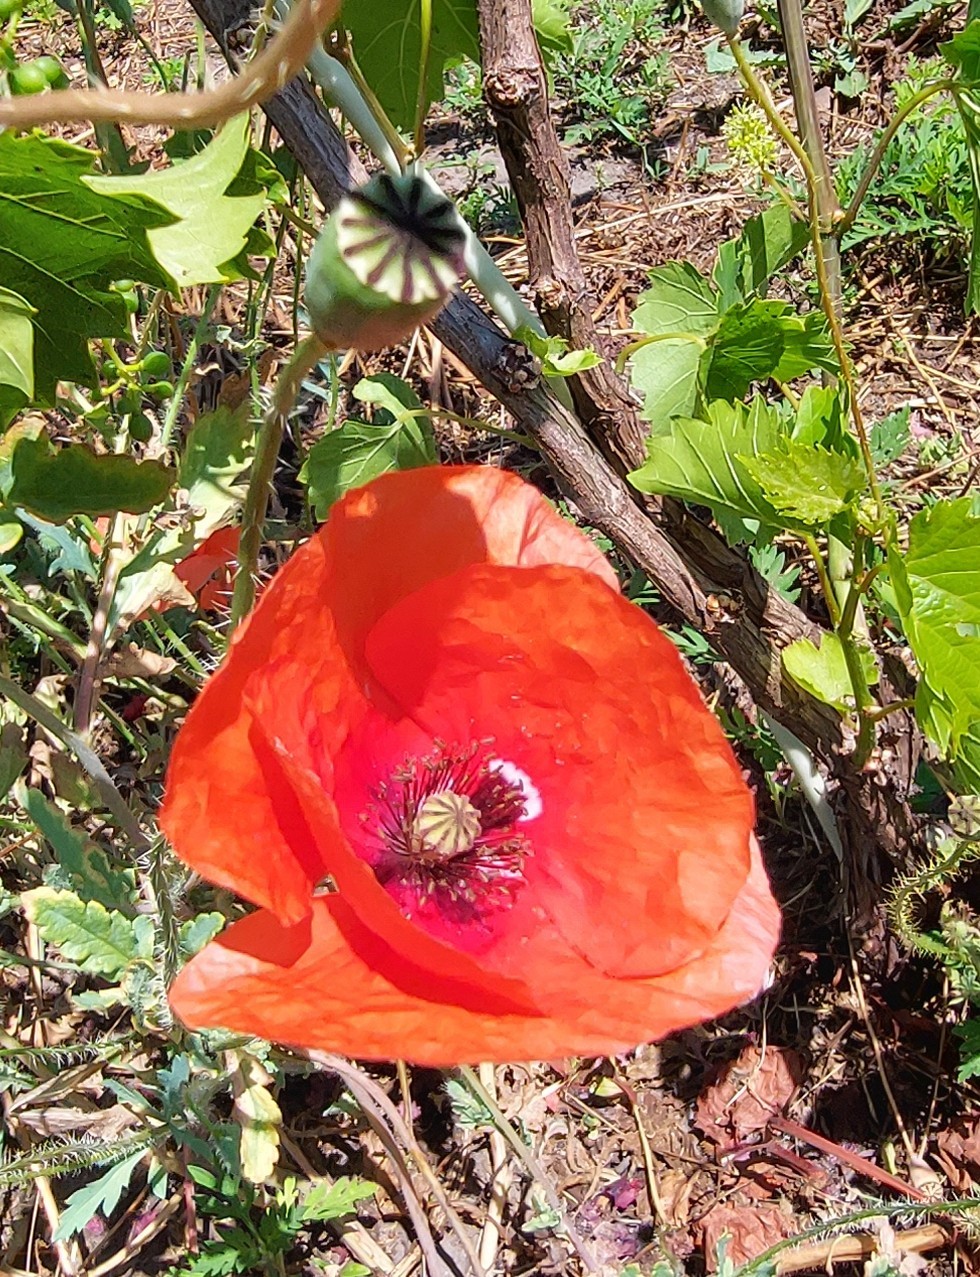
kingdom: Plantae
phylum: Tracheophyta
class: Magnoliopsida
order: Ranunculales
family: Papaveraceae
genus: Papaver
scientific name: Papaver rhoeas
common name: Corn poppy
